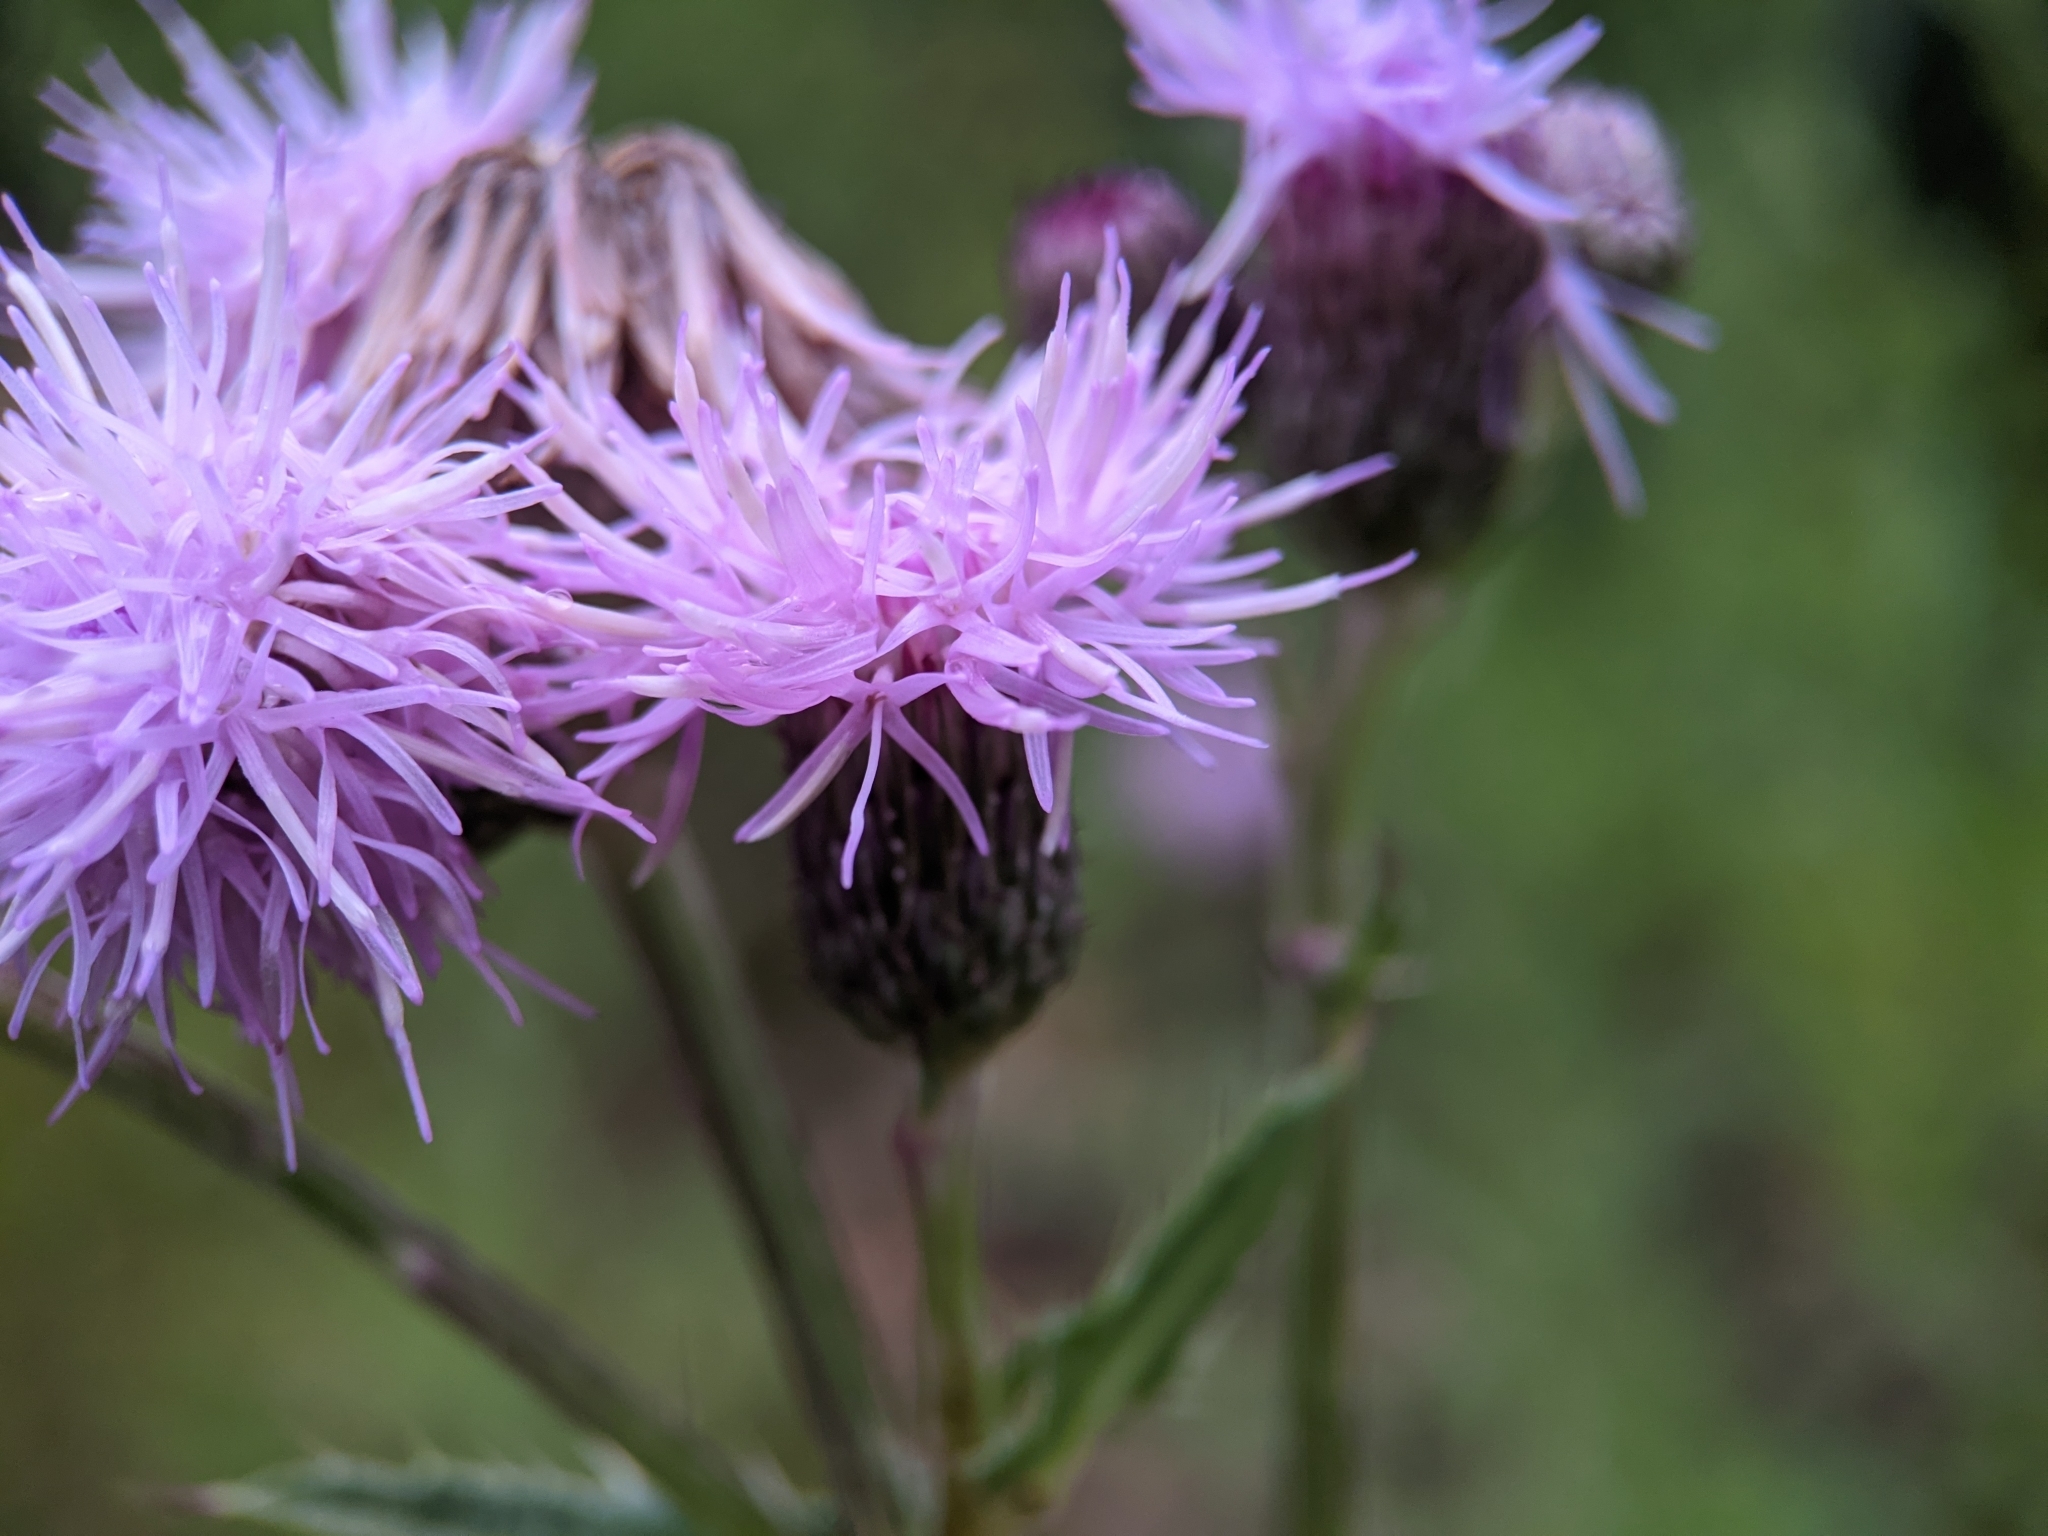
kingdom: Plantae
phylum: Tracheophyta
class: Magnoliopsida
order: Asterales
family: Asteraceae
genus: Cirsium
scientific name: Cirsium arvense
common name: Creeping thistle
